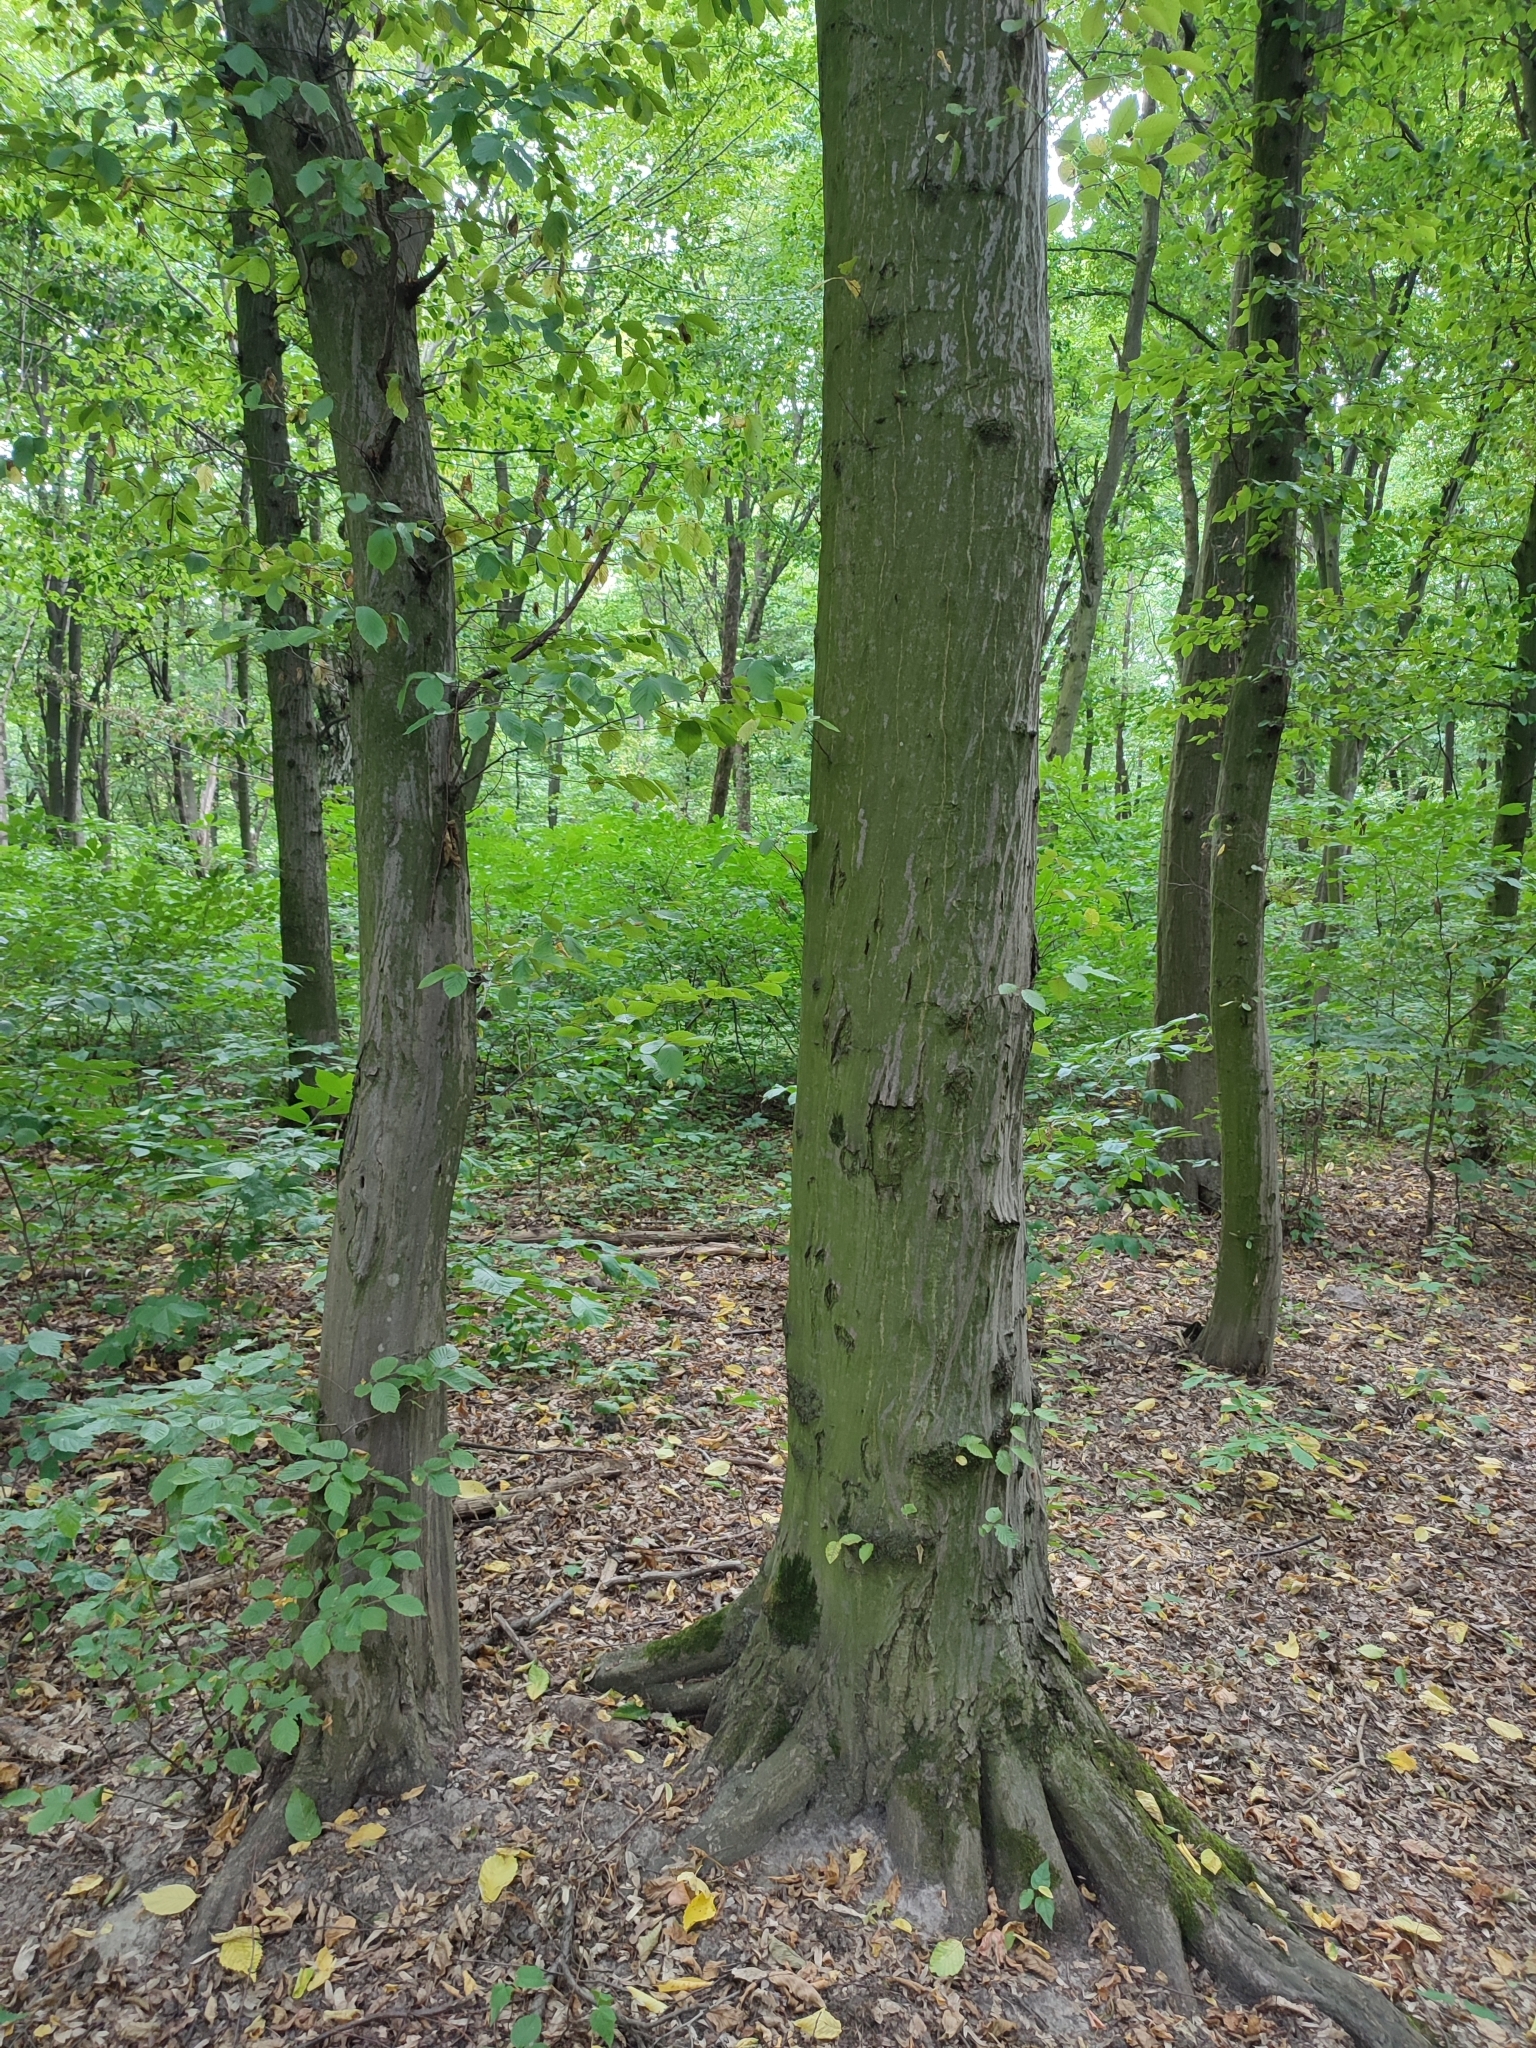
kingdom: Plantae
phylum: Tracheophyta
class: Magnoliopsida
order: Fagales
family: Betulaceae
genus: Carpinus
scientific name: Carpinus betulus
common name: Hornbeam
